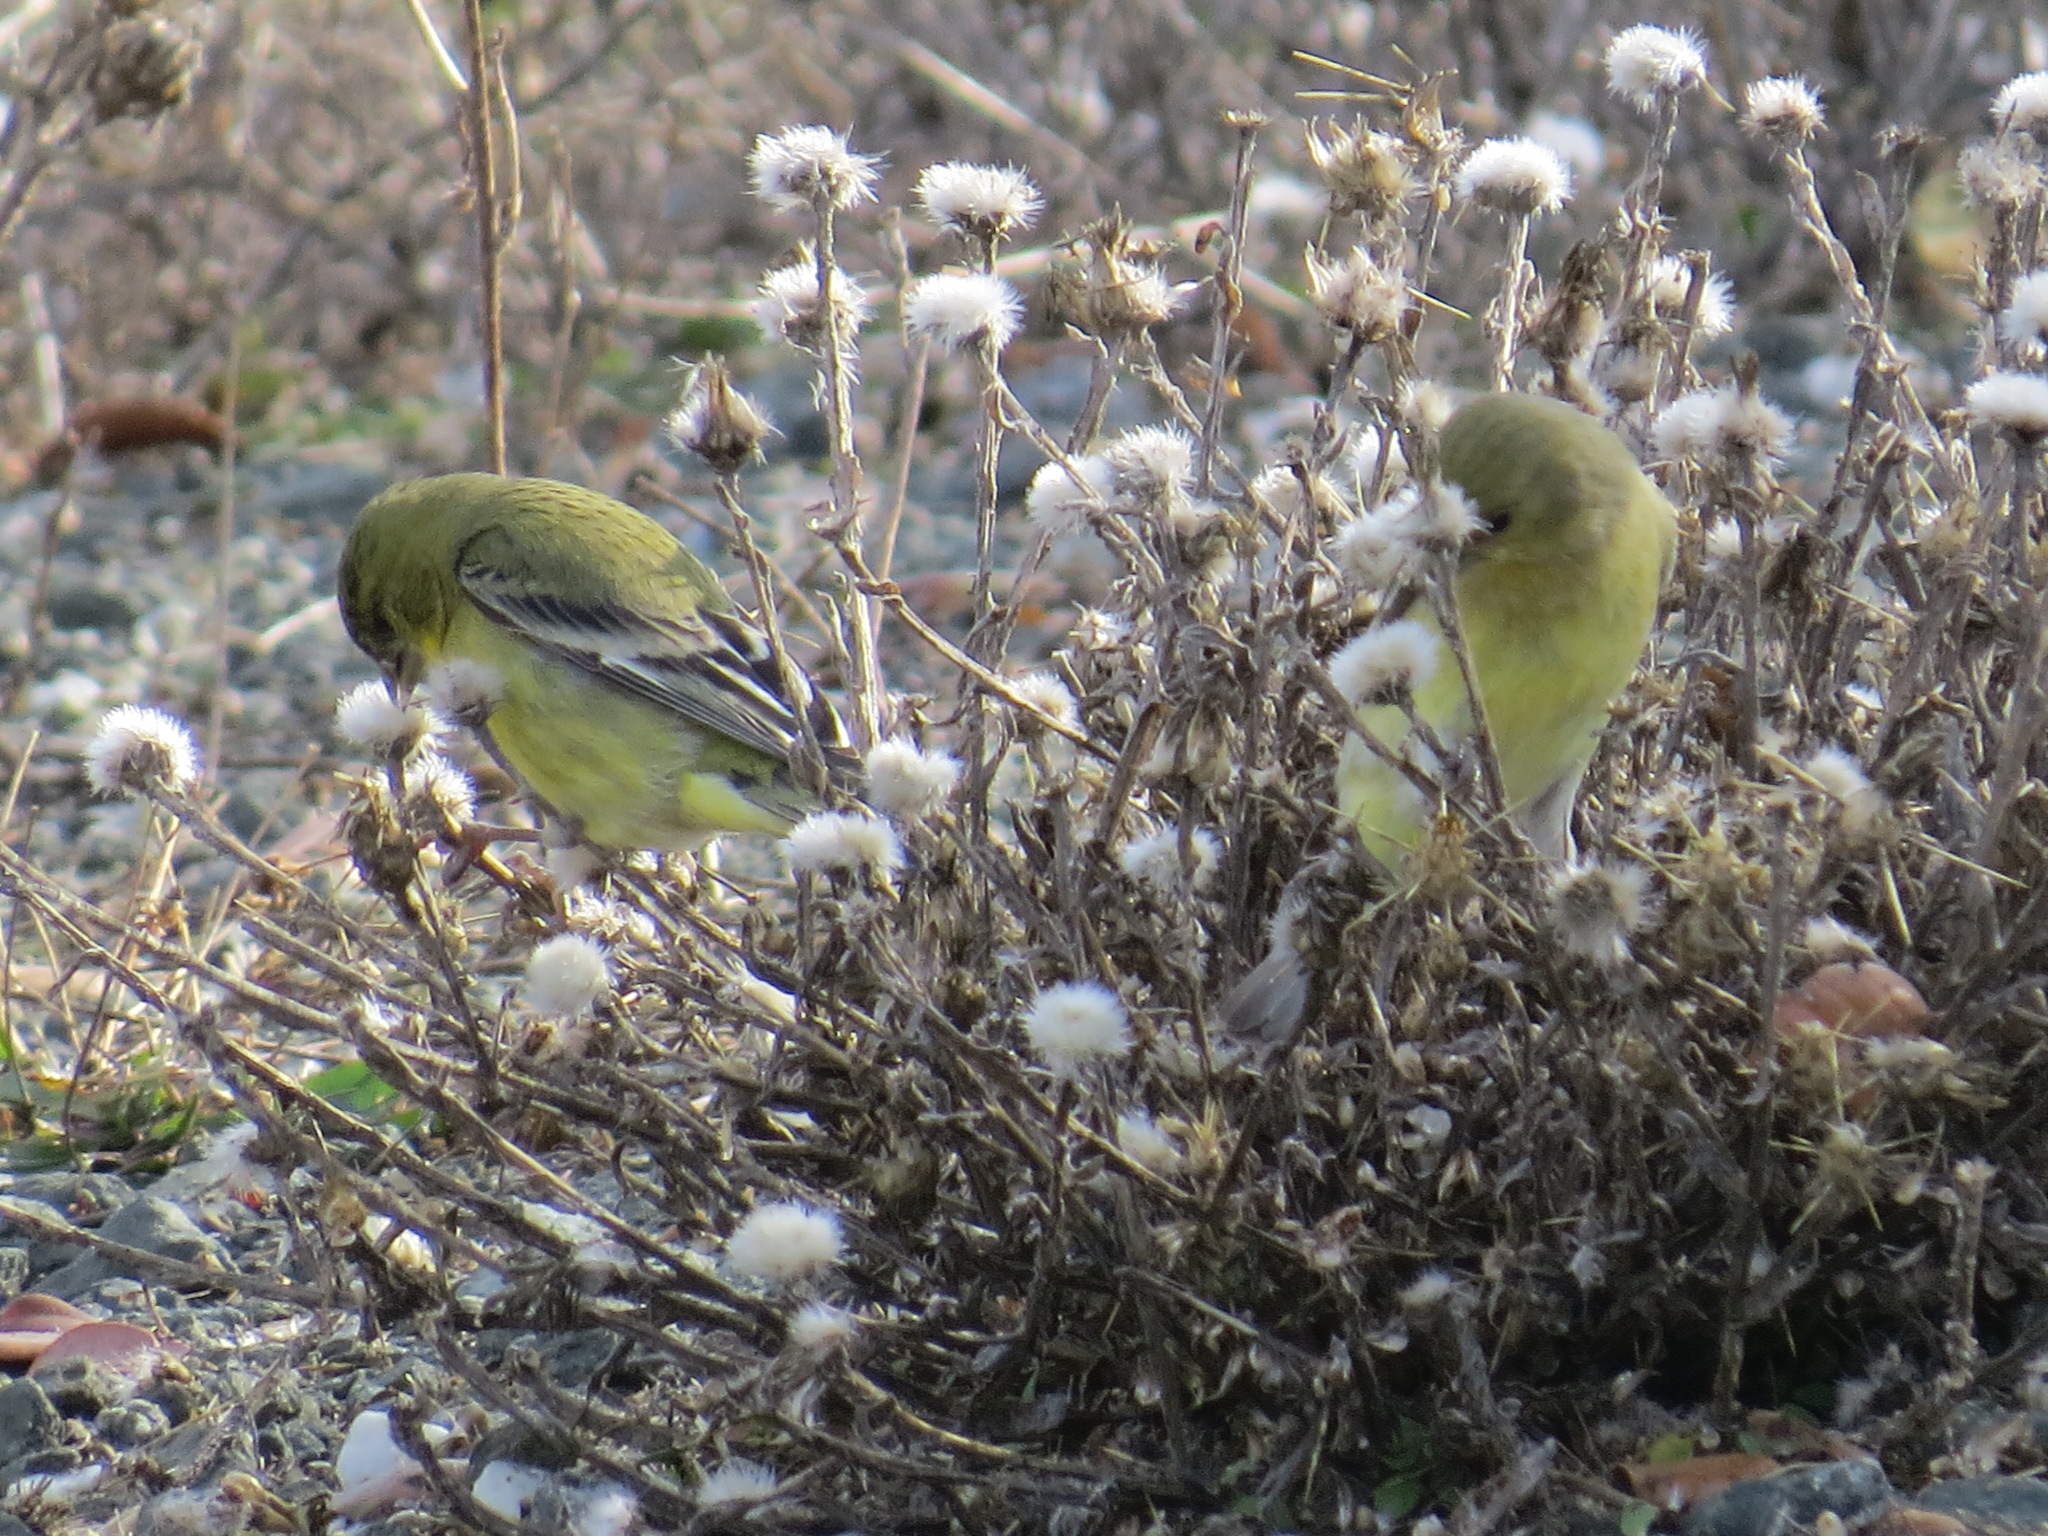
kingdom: Animalia
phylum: Chordata
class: Aves
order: Passeriformes
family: Fringillidae
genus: Spinus
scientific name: Spinus psaltria
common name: Lesser goldfinch
